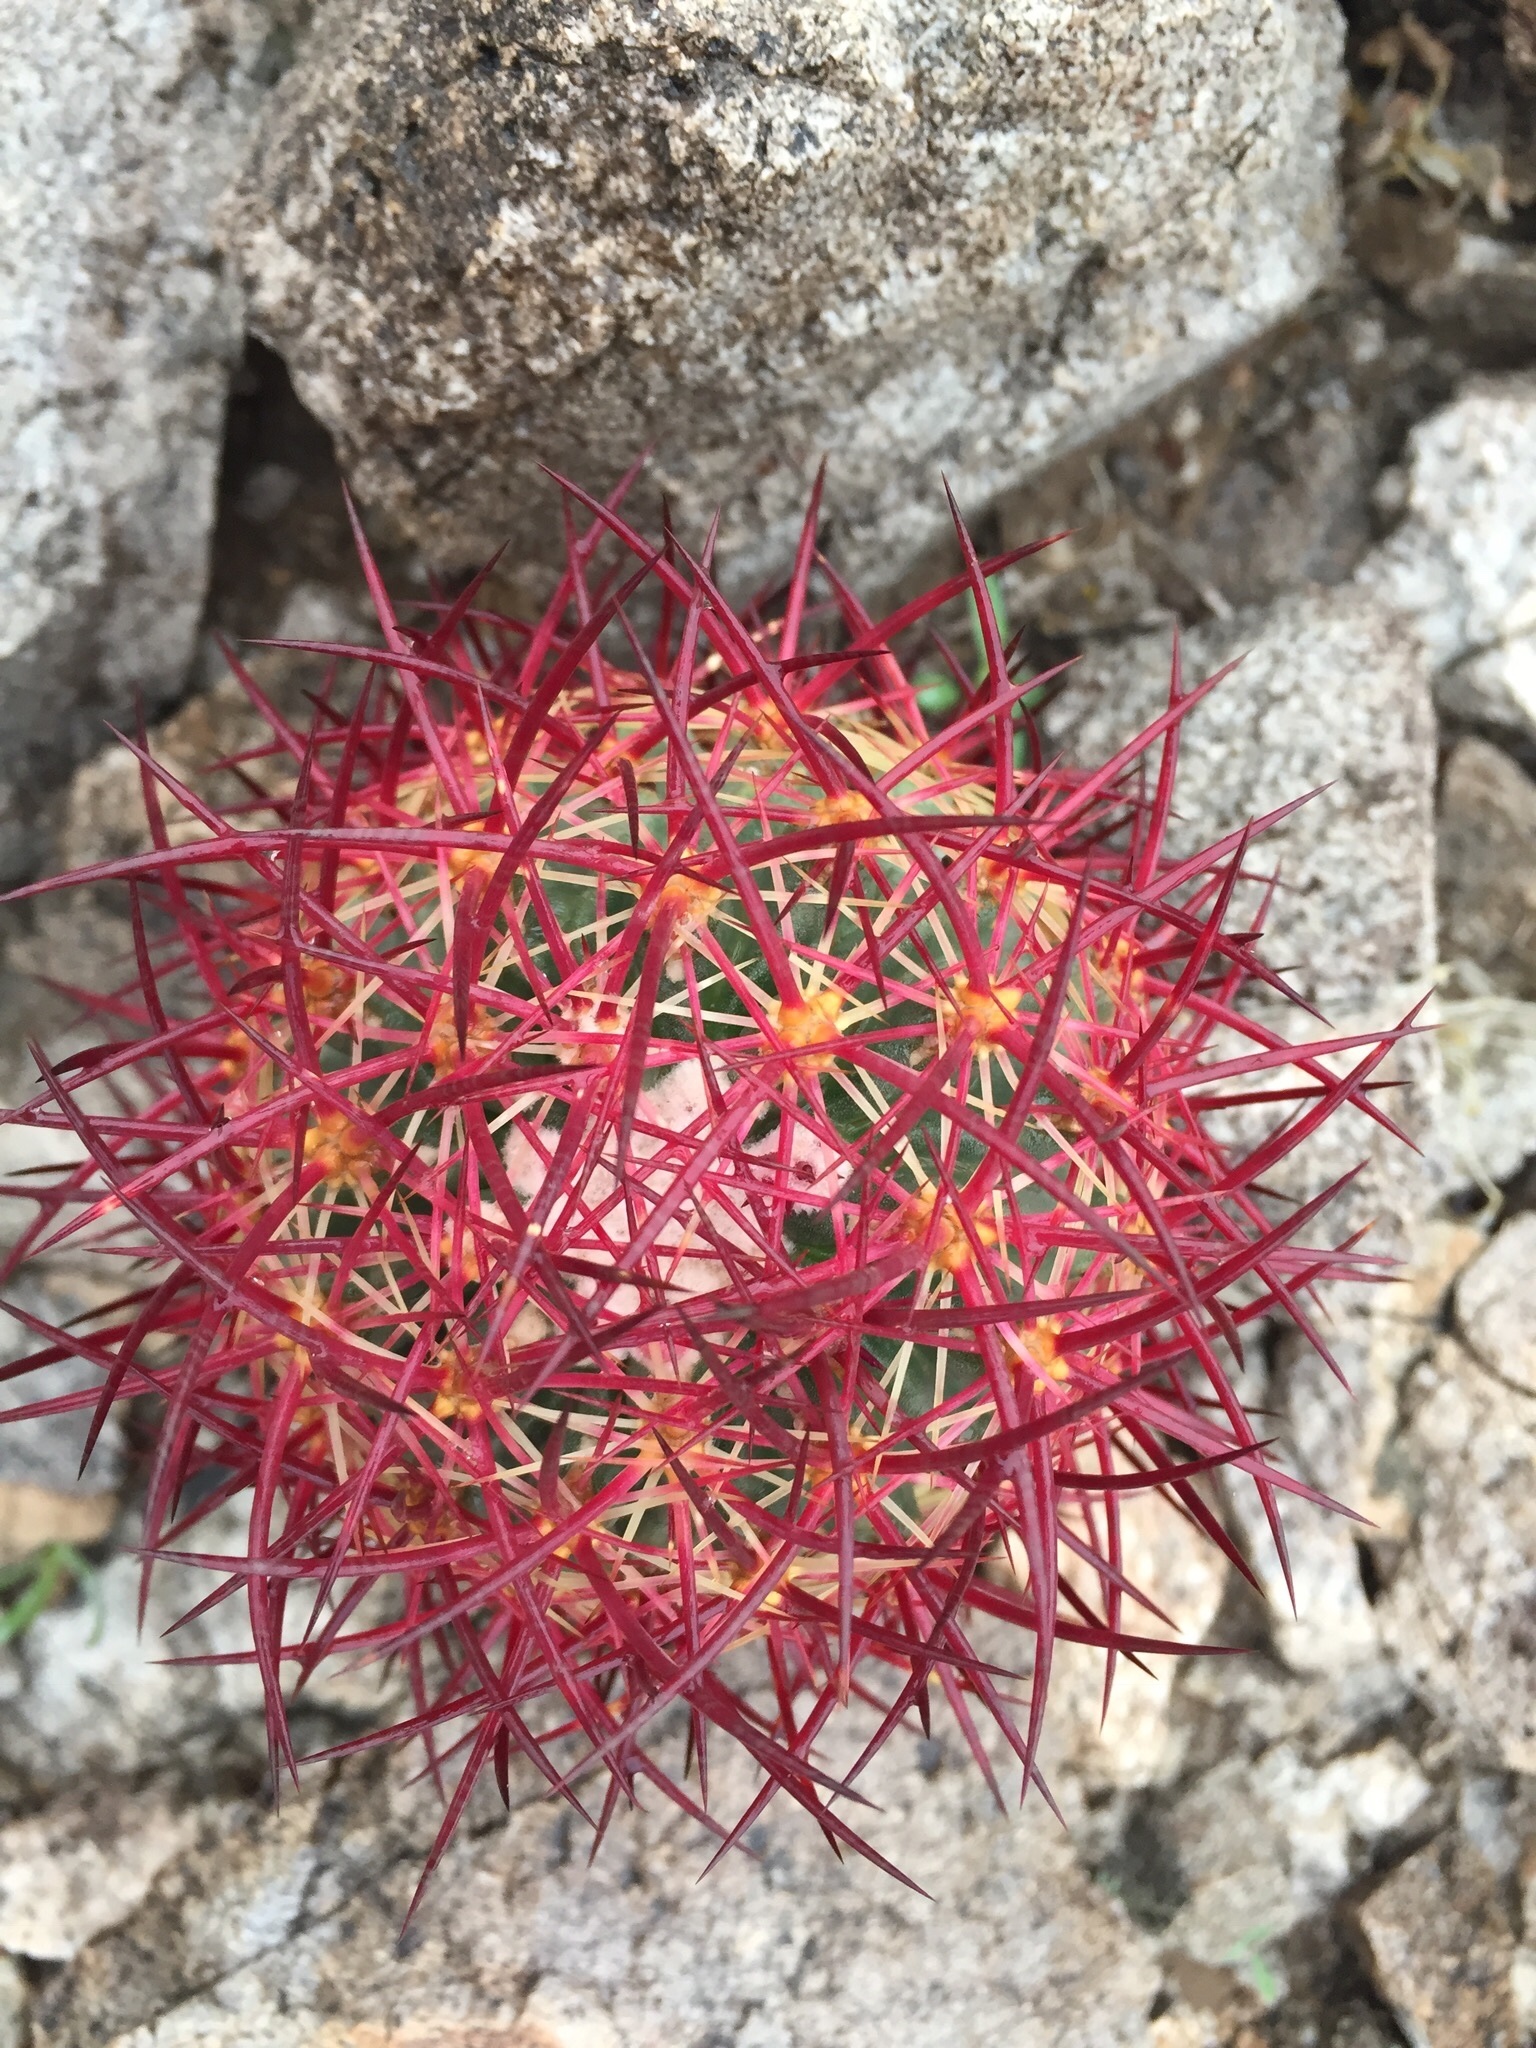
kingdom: Plantae
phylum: Tracheophyta
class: Magnoliopsida
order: Caryophyllales
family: Cactaceae
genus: Sclerocactus
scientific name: Sclerocactus johnsonii
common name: Eight-spine fishhook cactus
